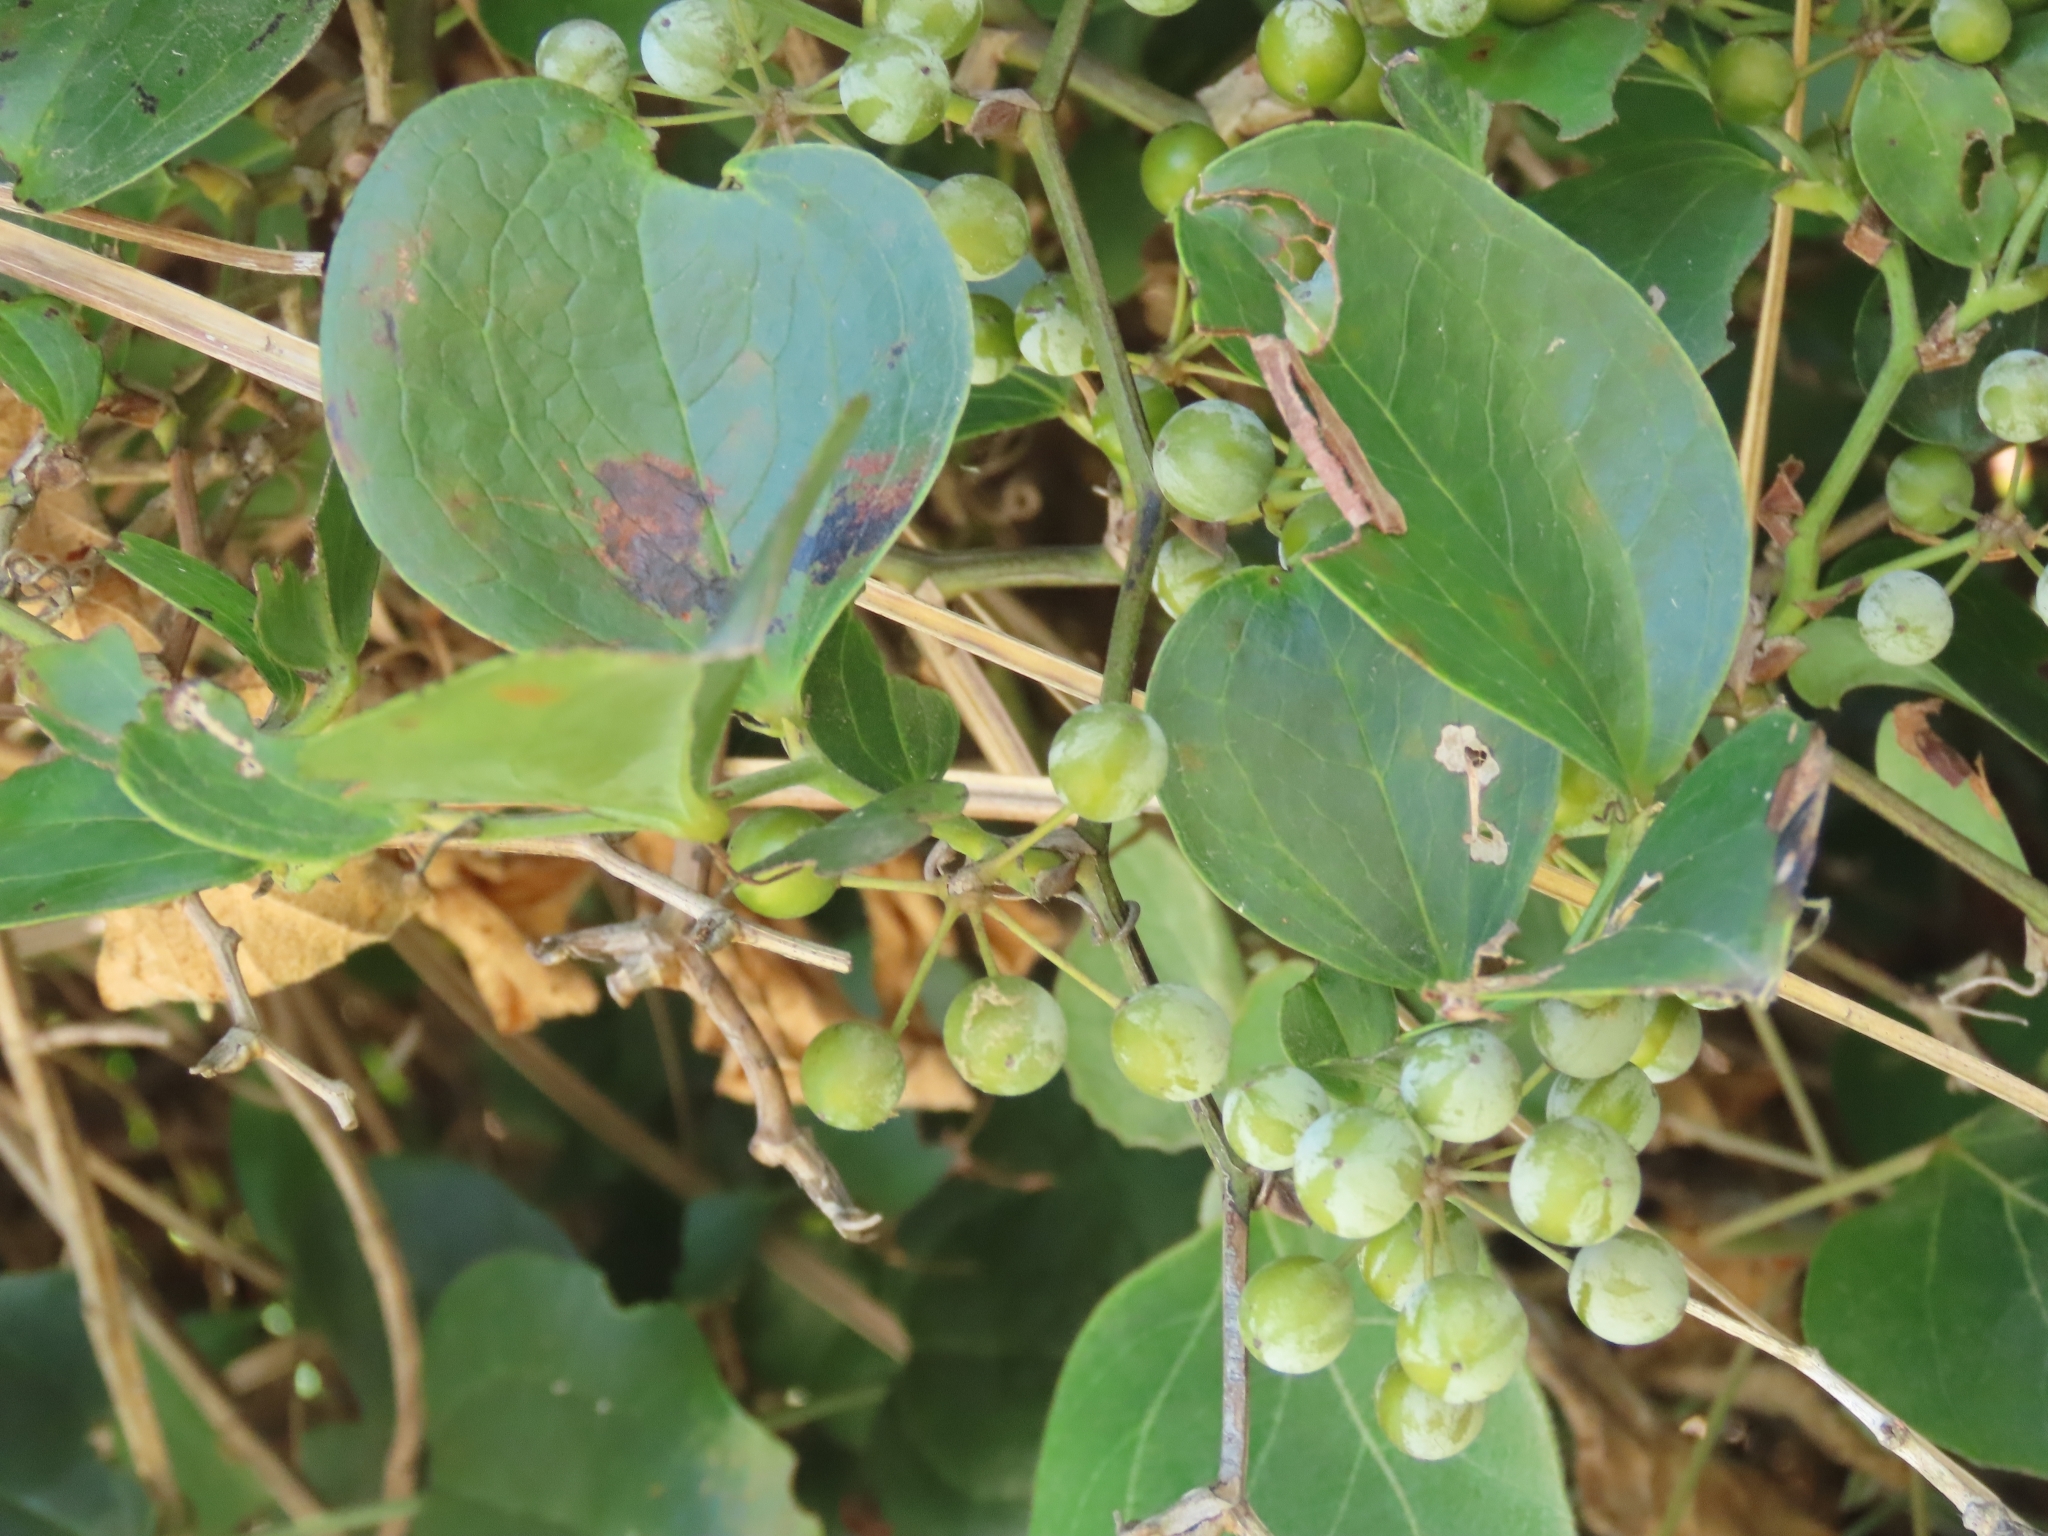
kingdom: Plantae
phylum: Tracheophyta
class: Liliopsida
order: Liliales
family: Smilacaceae
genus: Smilax
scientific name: Smilax china
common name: Chinaroot
